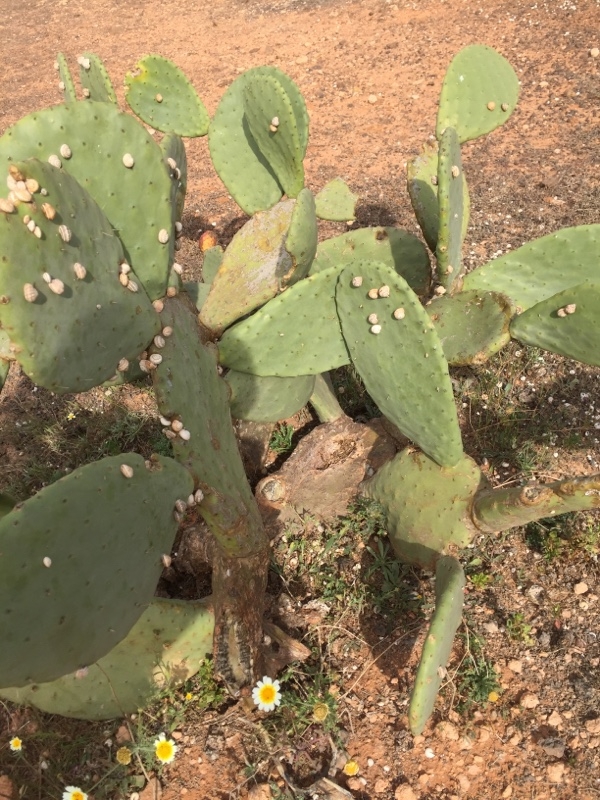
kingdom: Plantae
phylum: Tracheophyta
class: Magnoliopsida
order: Caryophyllales
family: Cactaceae
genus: Opuntia
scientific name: Opuntia ficus-indica
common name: Barbary fig
